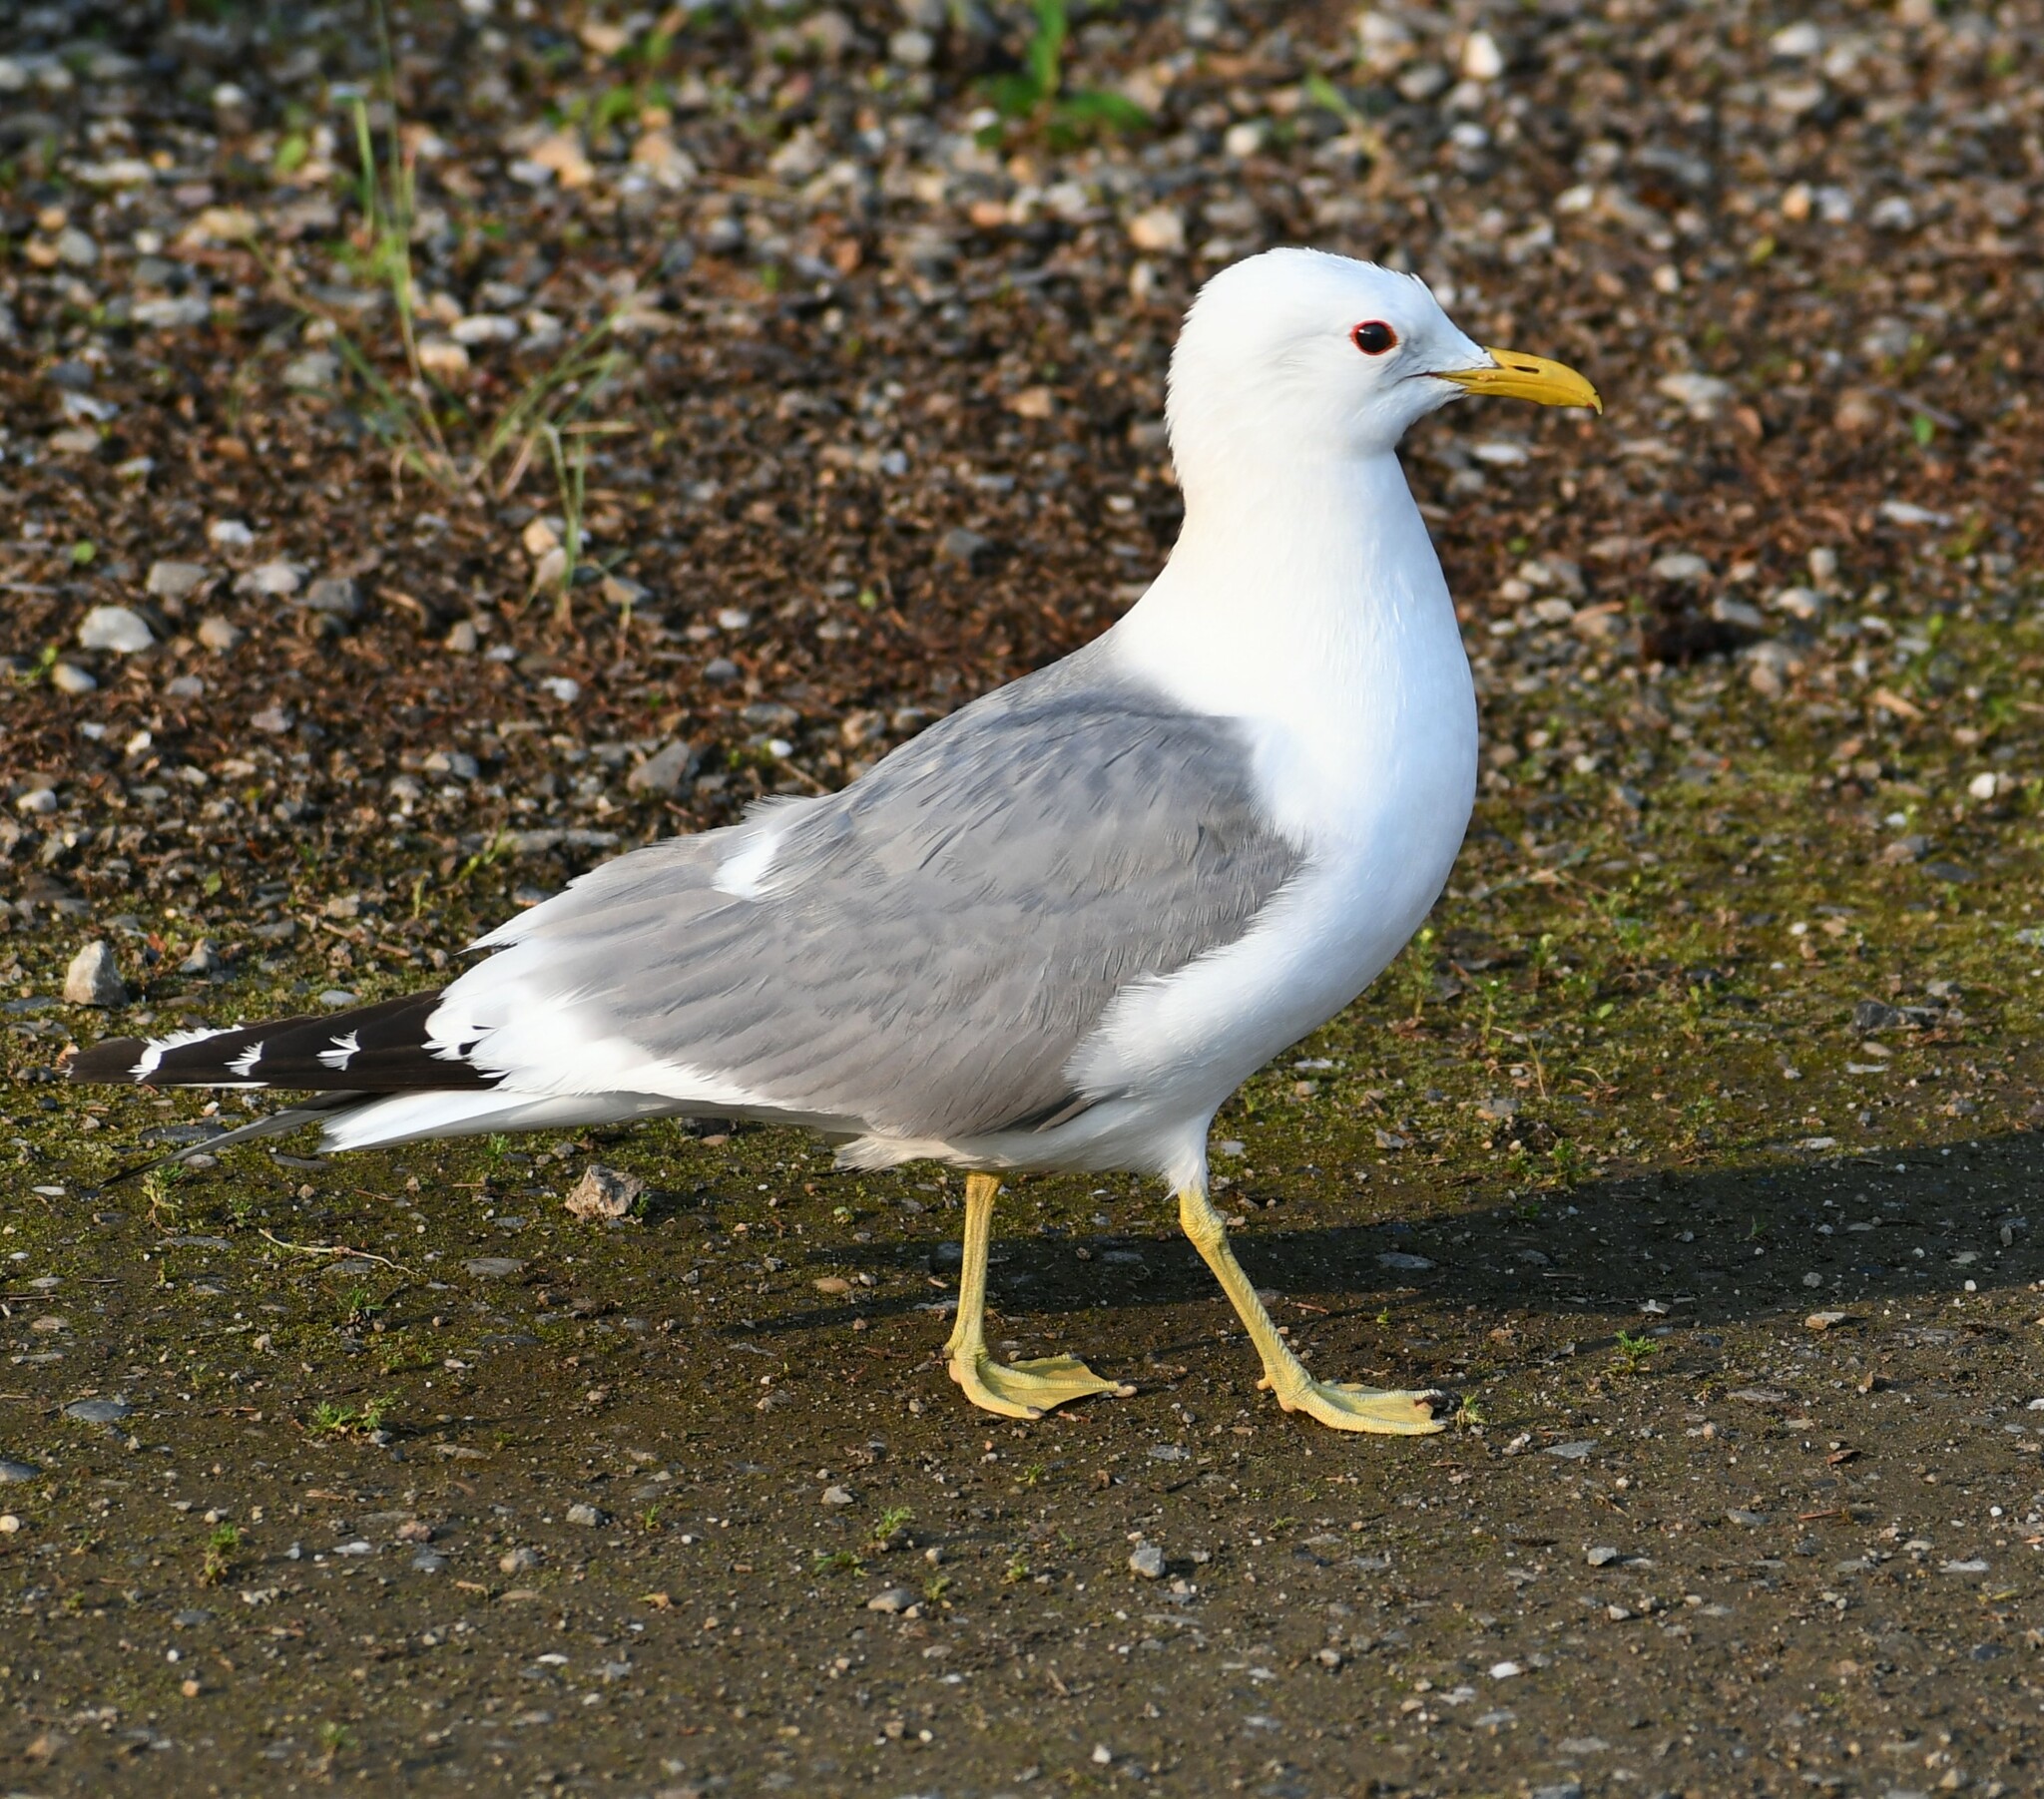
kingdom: Animalia
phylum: Chordata
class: Aves
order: Charadriiformes
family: Laridae
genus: Larus
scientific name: Larus brachyrhynchus
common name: Short-billed gull
